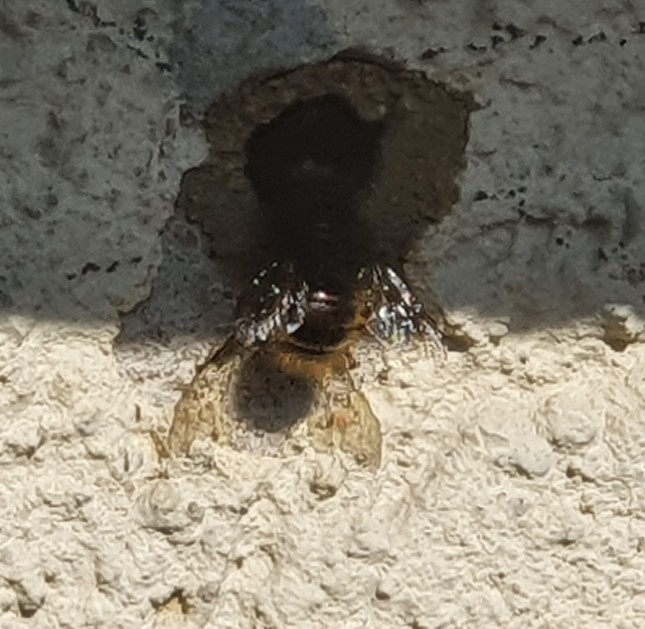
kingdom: Animalia
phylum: Arthropoda
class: Insecta
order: Hymenoptera
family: Megachilidae
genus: Osmia
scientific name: Osmia cornuta
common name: Mason bee
